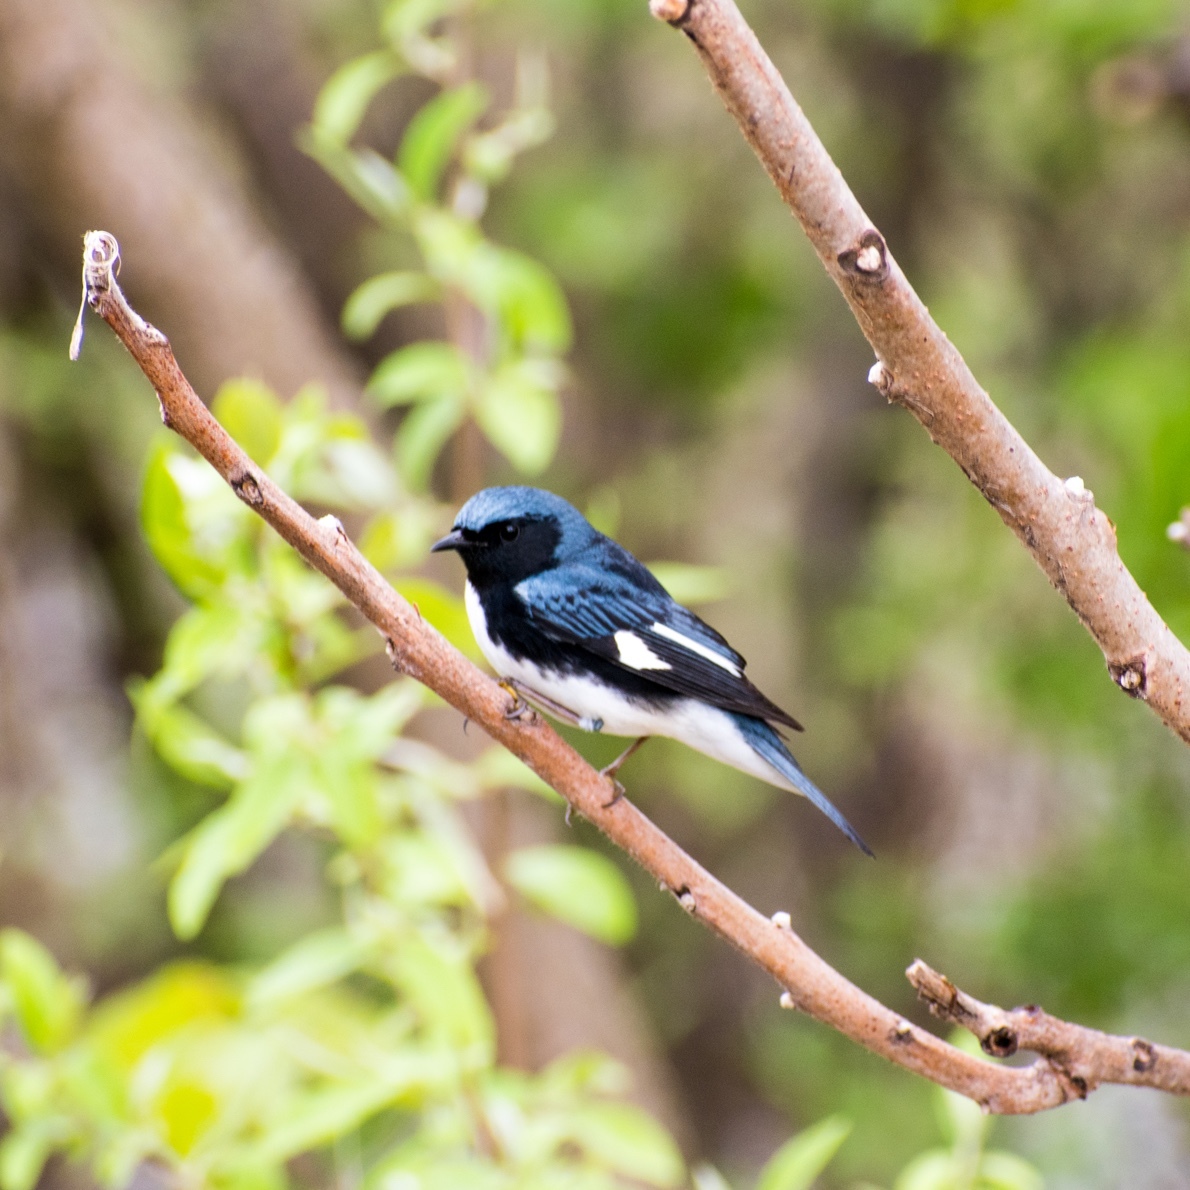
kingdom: Animalia
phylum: Chordata
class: Aves
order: Passeriformes
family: Parulidae
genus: Setophaga
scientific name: Setophaga caerulescens
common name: Black-throated blue warbler
